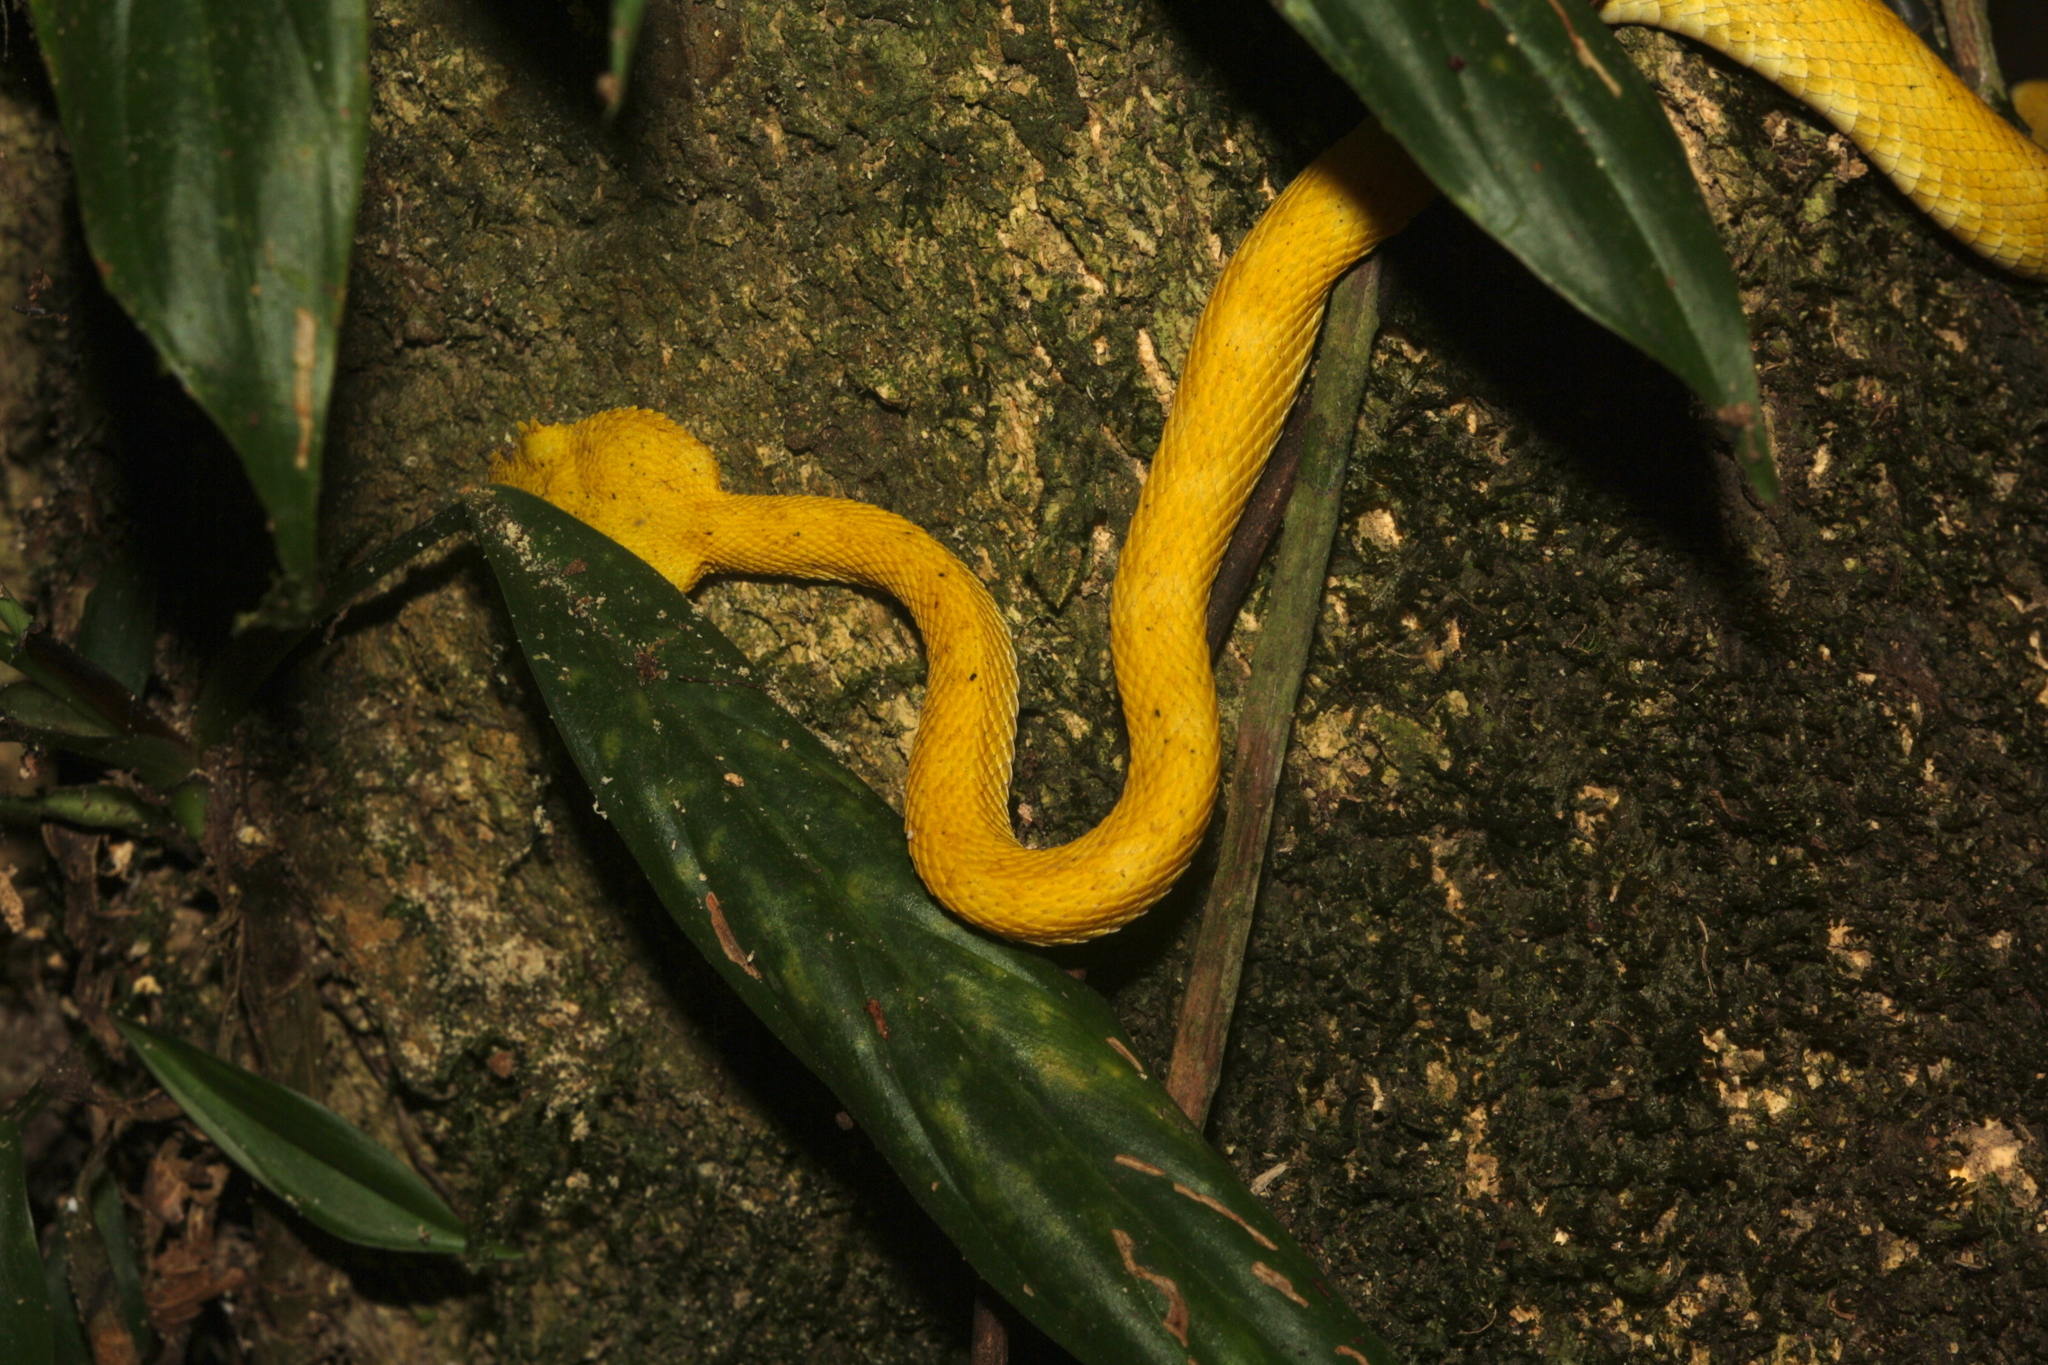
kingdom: Animalia
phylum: Chordata
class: Squamata
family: Viperidae
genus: Bothriechis
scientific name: Bothriechis schlegelii
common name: Eyelash viper
